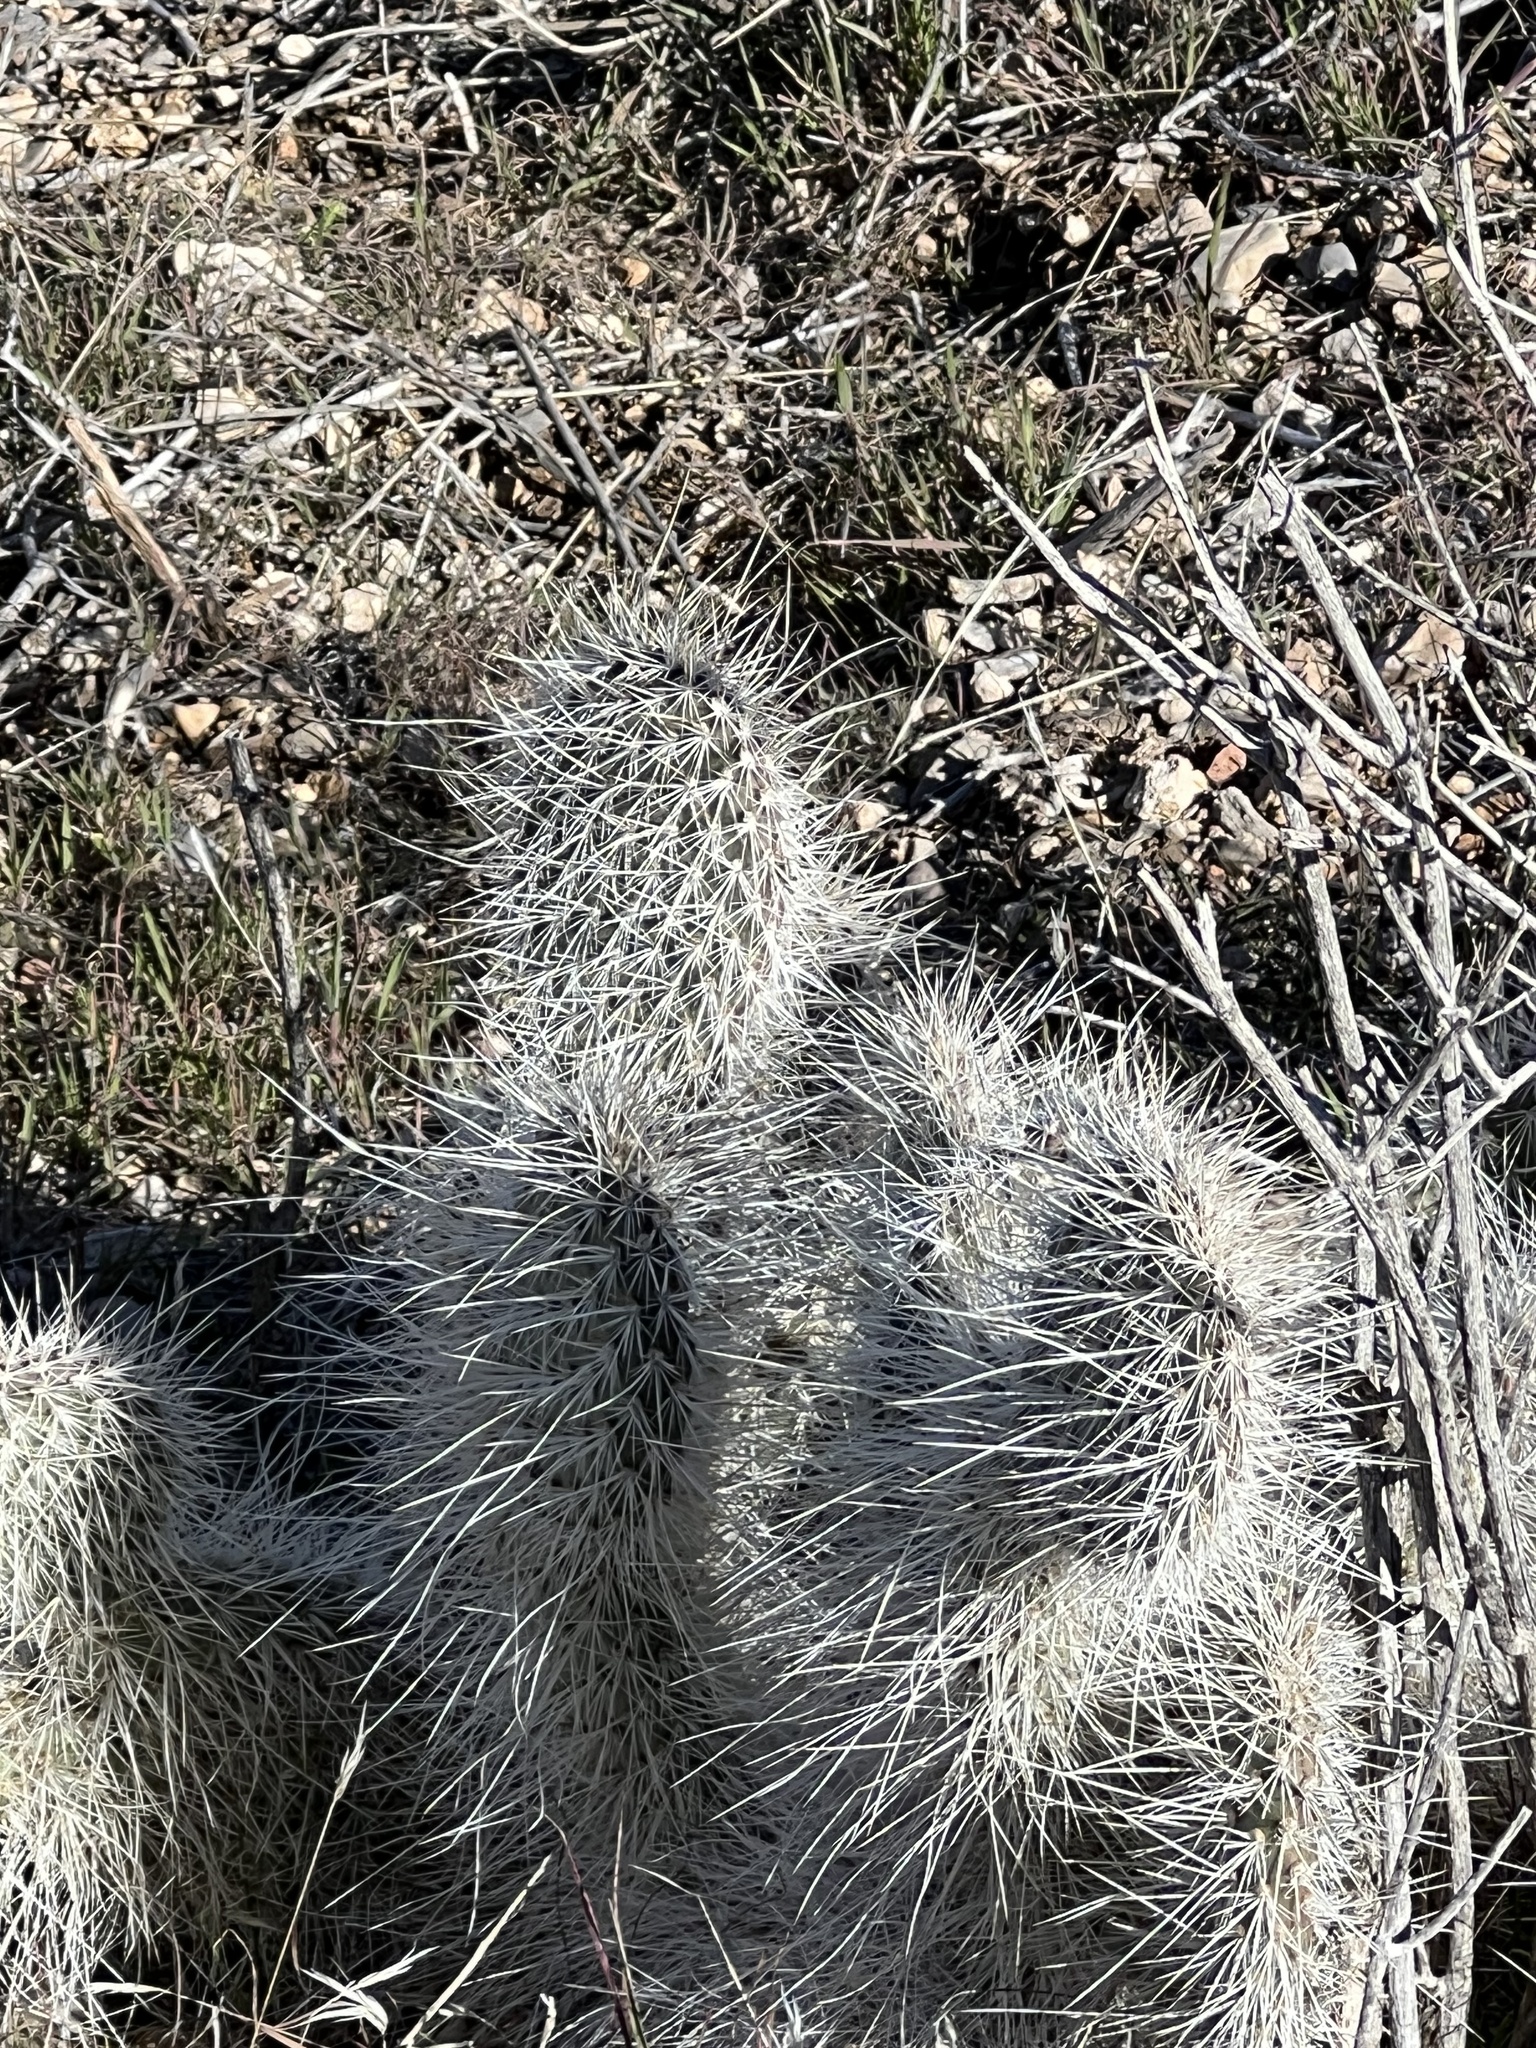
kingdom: Plantae
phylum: Tracheophyta
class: Magnoliopsida
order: Caryophyllales
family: Cactaceae
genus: Opuntia
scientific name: Opuntia polyacantha
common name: Plains prickly-pear
